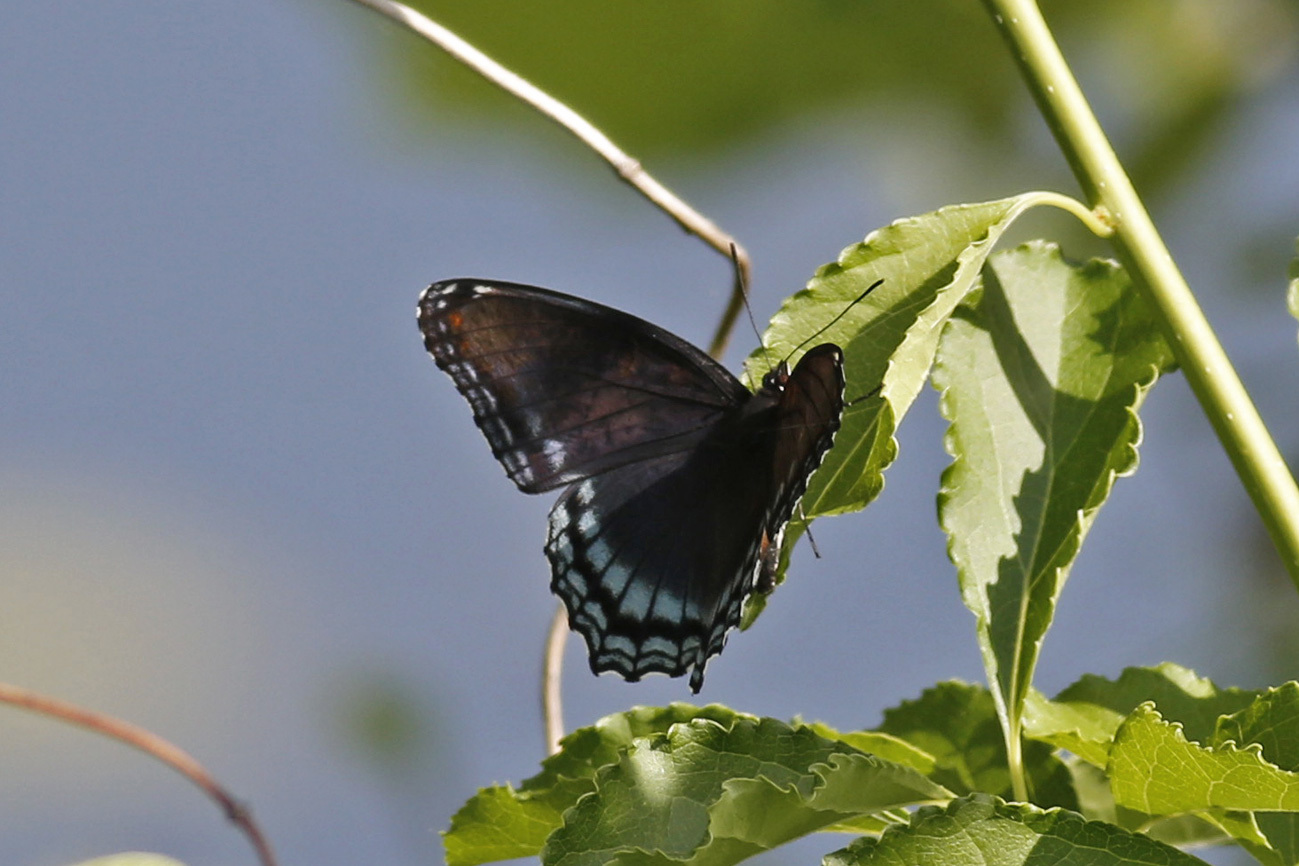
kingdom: Animalia
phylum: Arthropoda
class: Insecta
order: Lepidoptera
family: Nymphalidae
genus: Limenitis
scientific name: Limenitis astyanax
